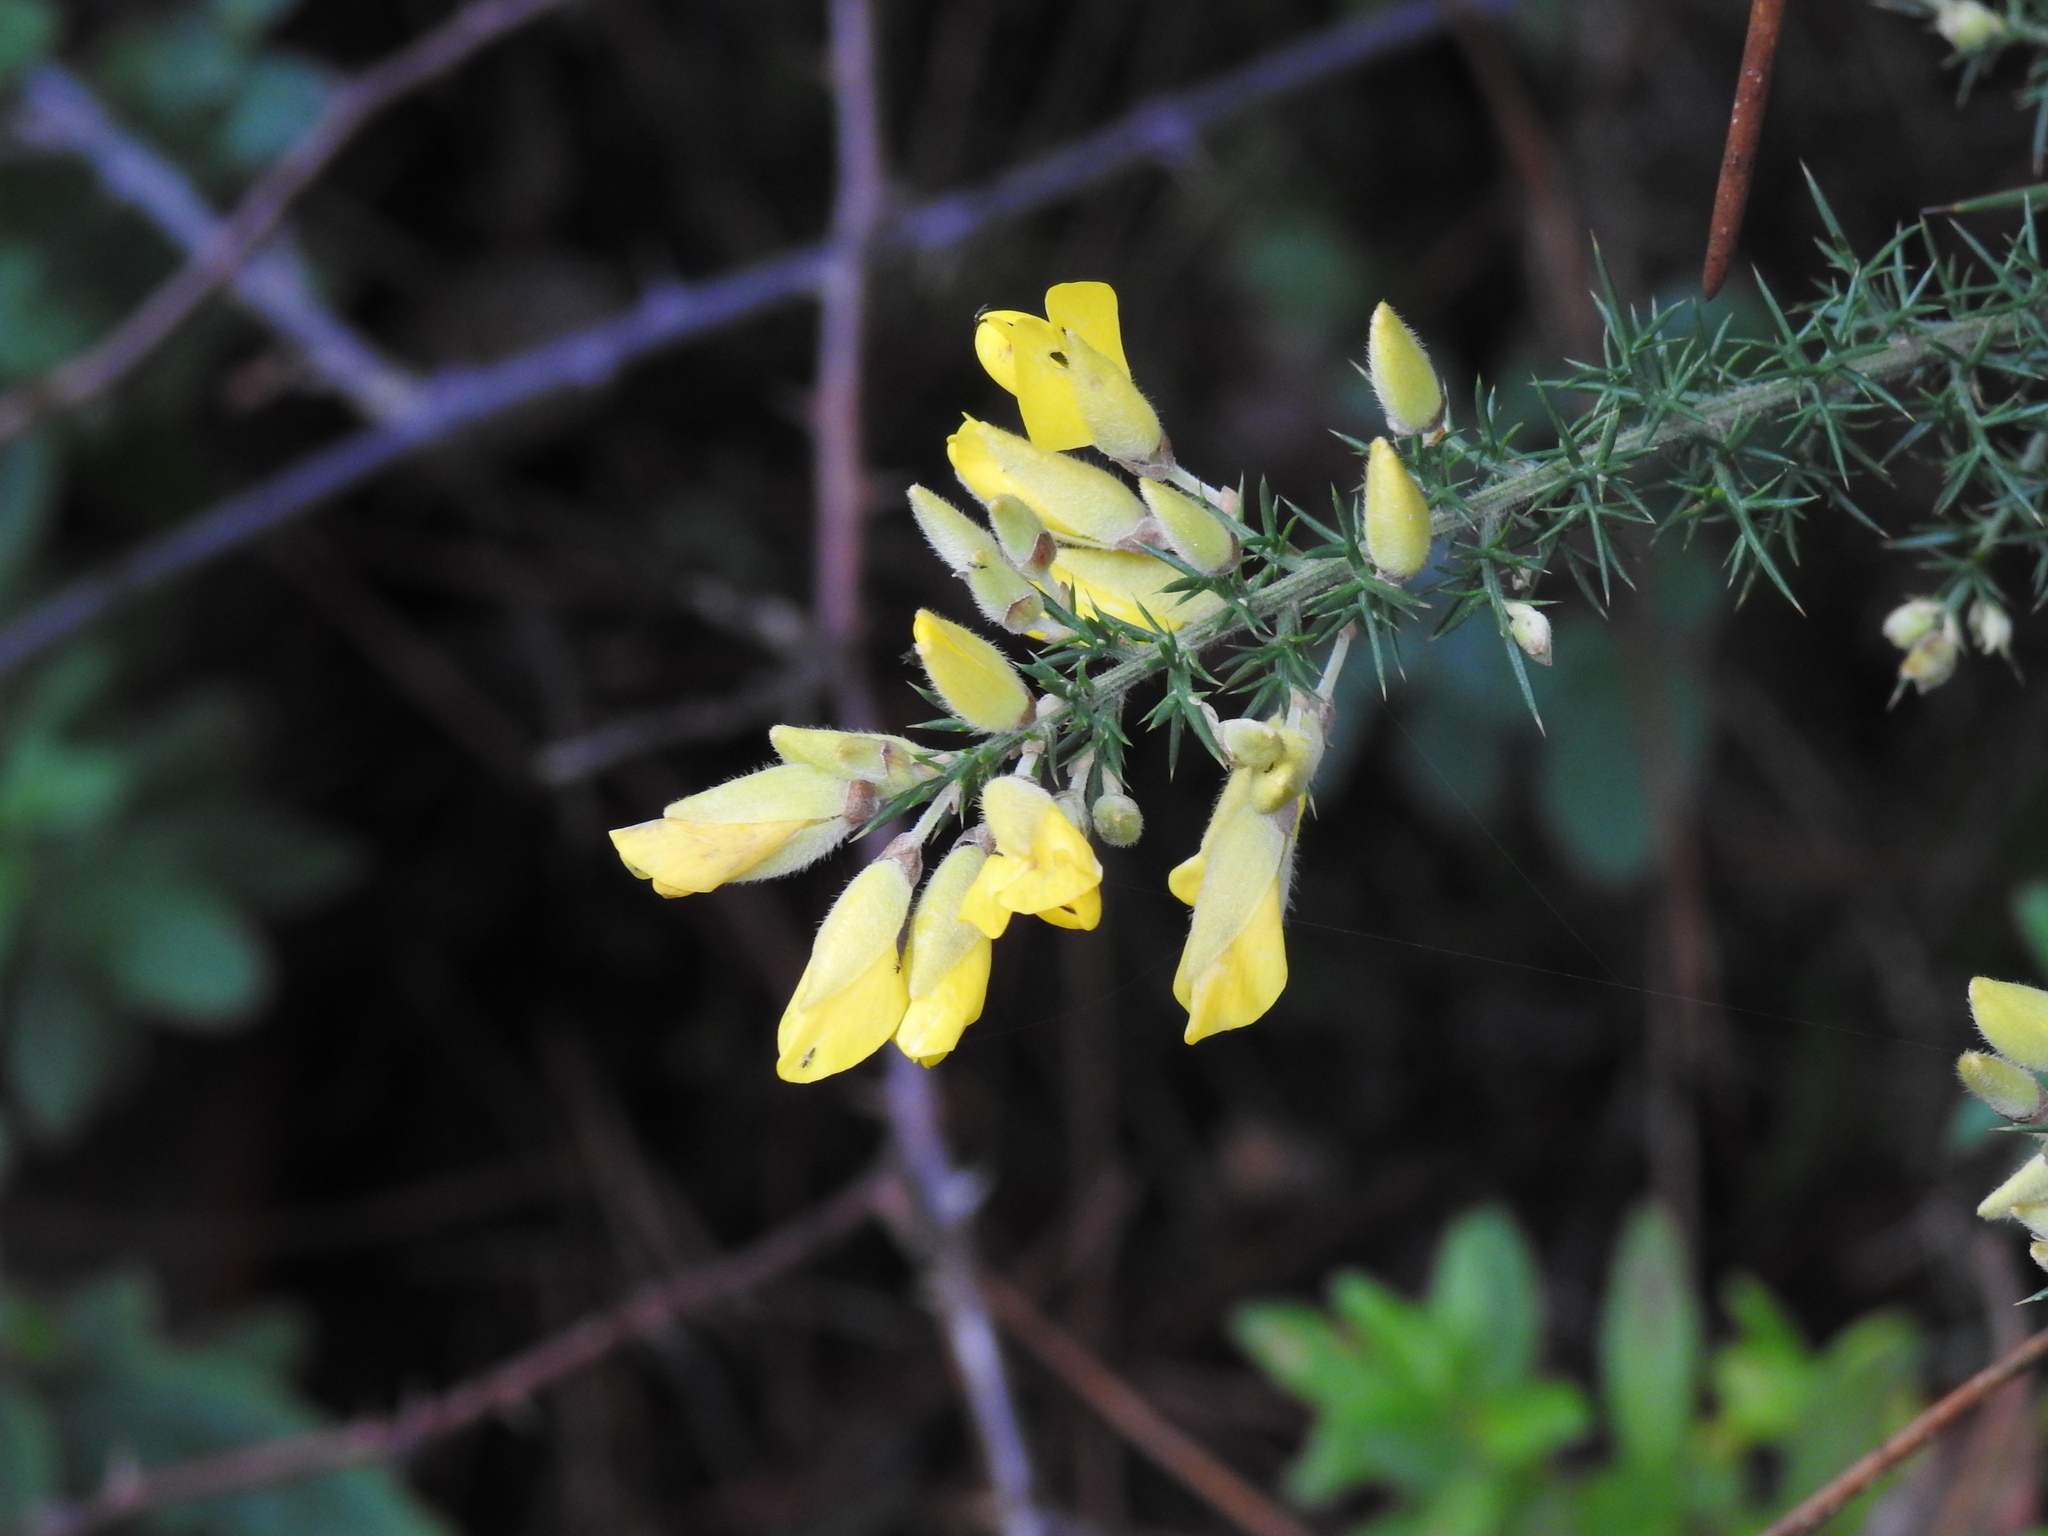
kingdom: Plantae
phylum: Tracheophyta
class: Magnoliopsida
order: Fabales
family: Fabaceae
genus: Ulex
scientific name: Ulex europaeus
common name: Common gorse
